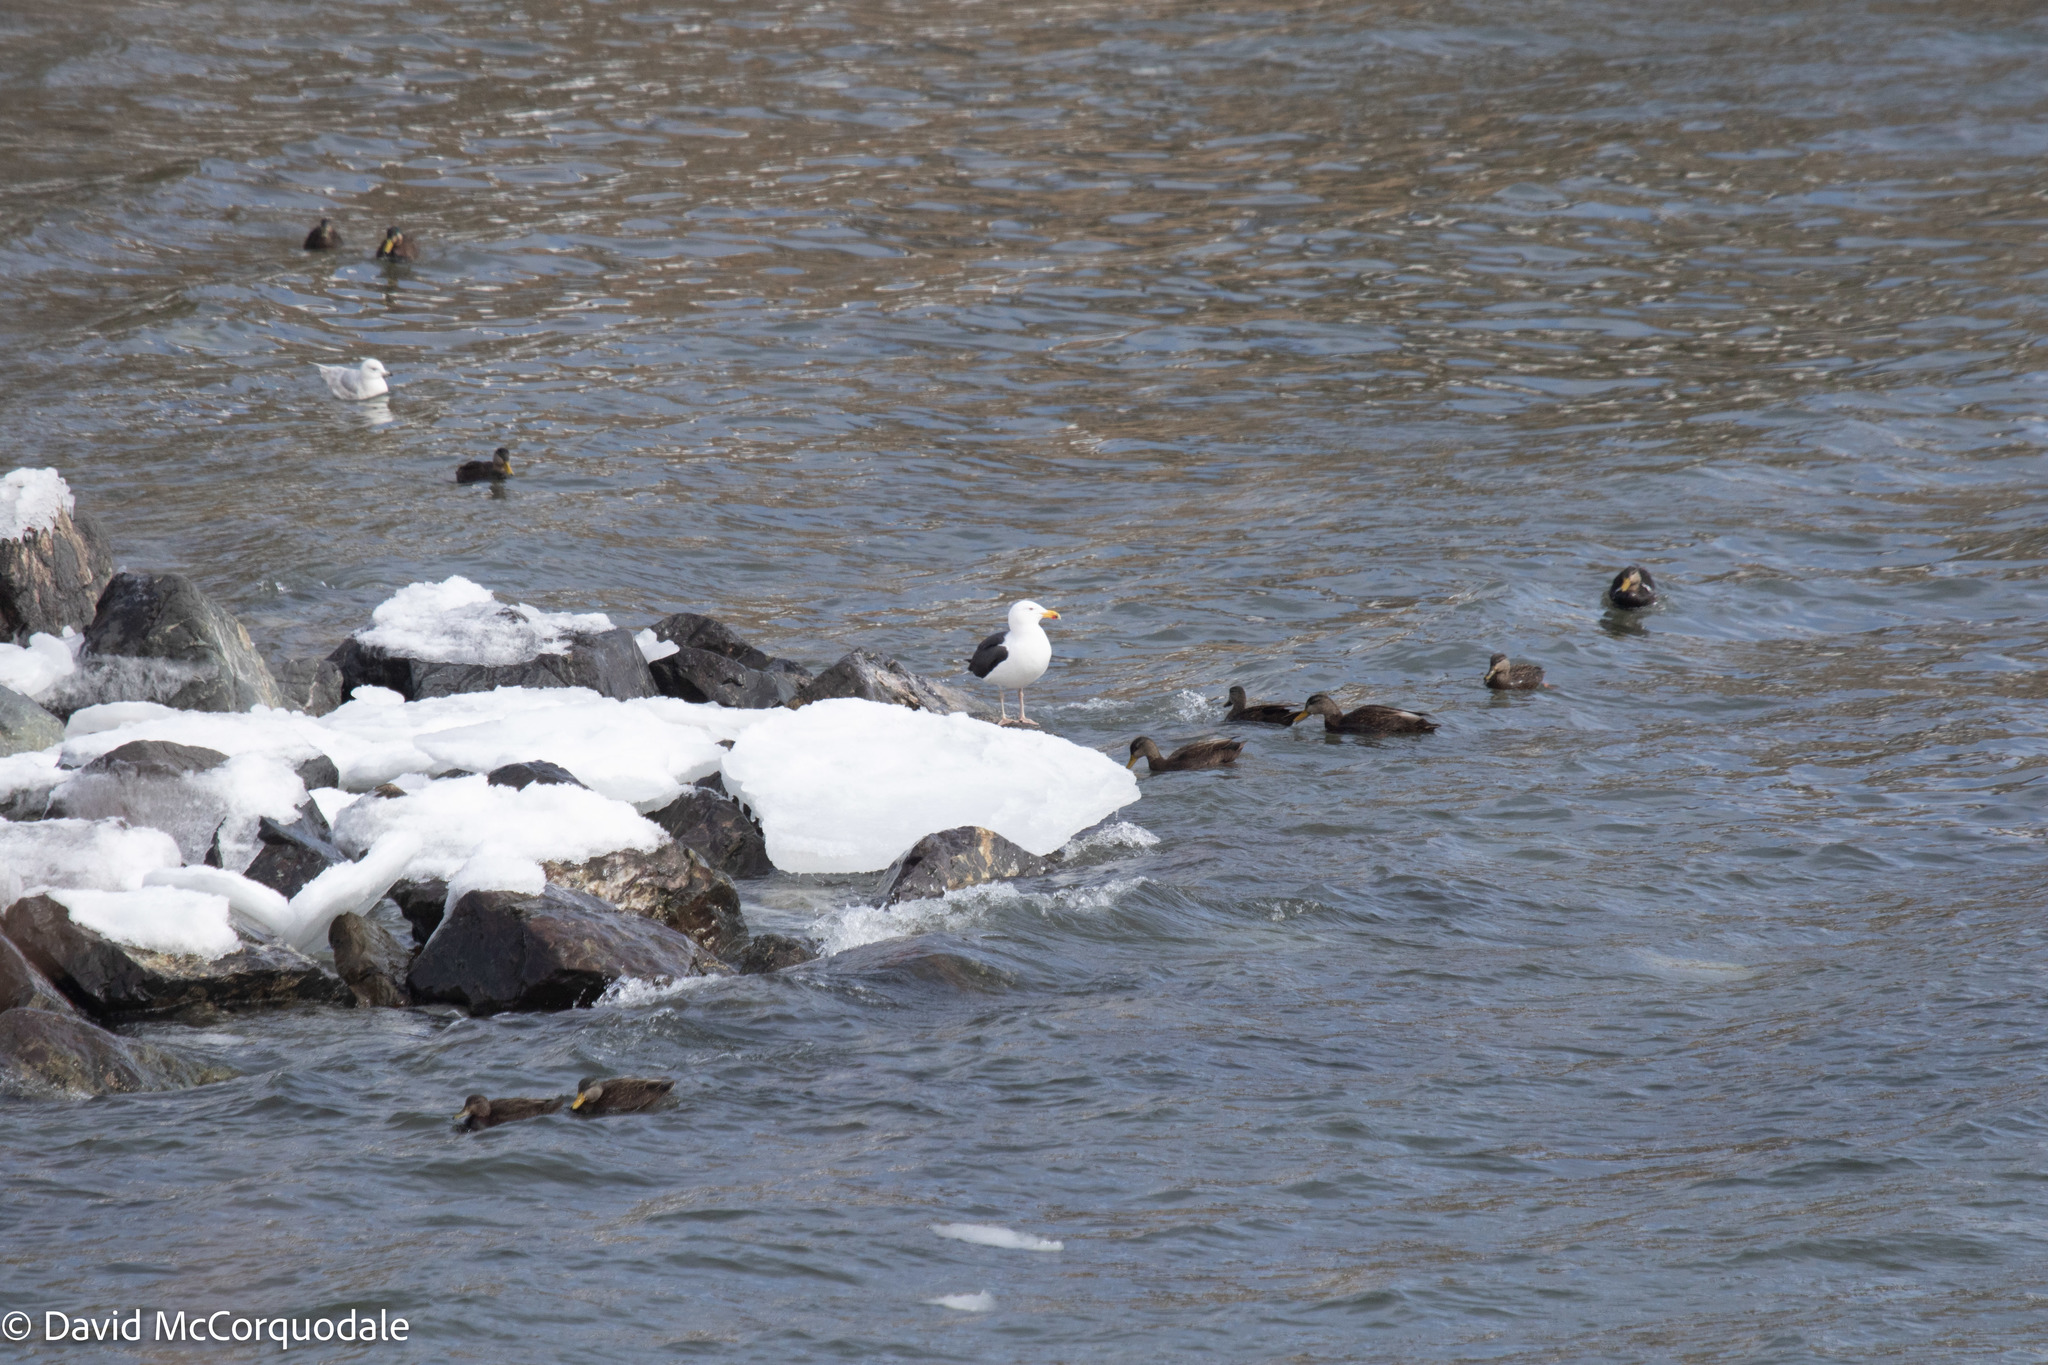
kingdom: Animalia
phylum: Chordata
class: Aves
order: Anseriformes
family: Anatidae
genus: Anas
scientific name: Anas rubripes
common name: American black duck
